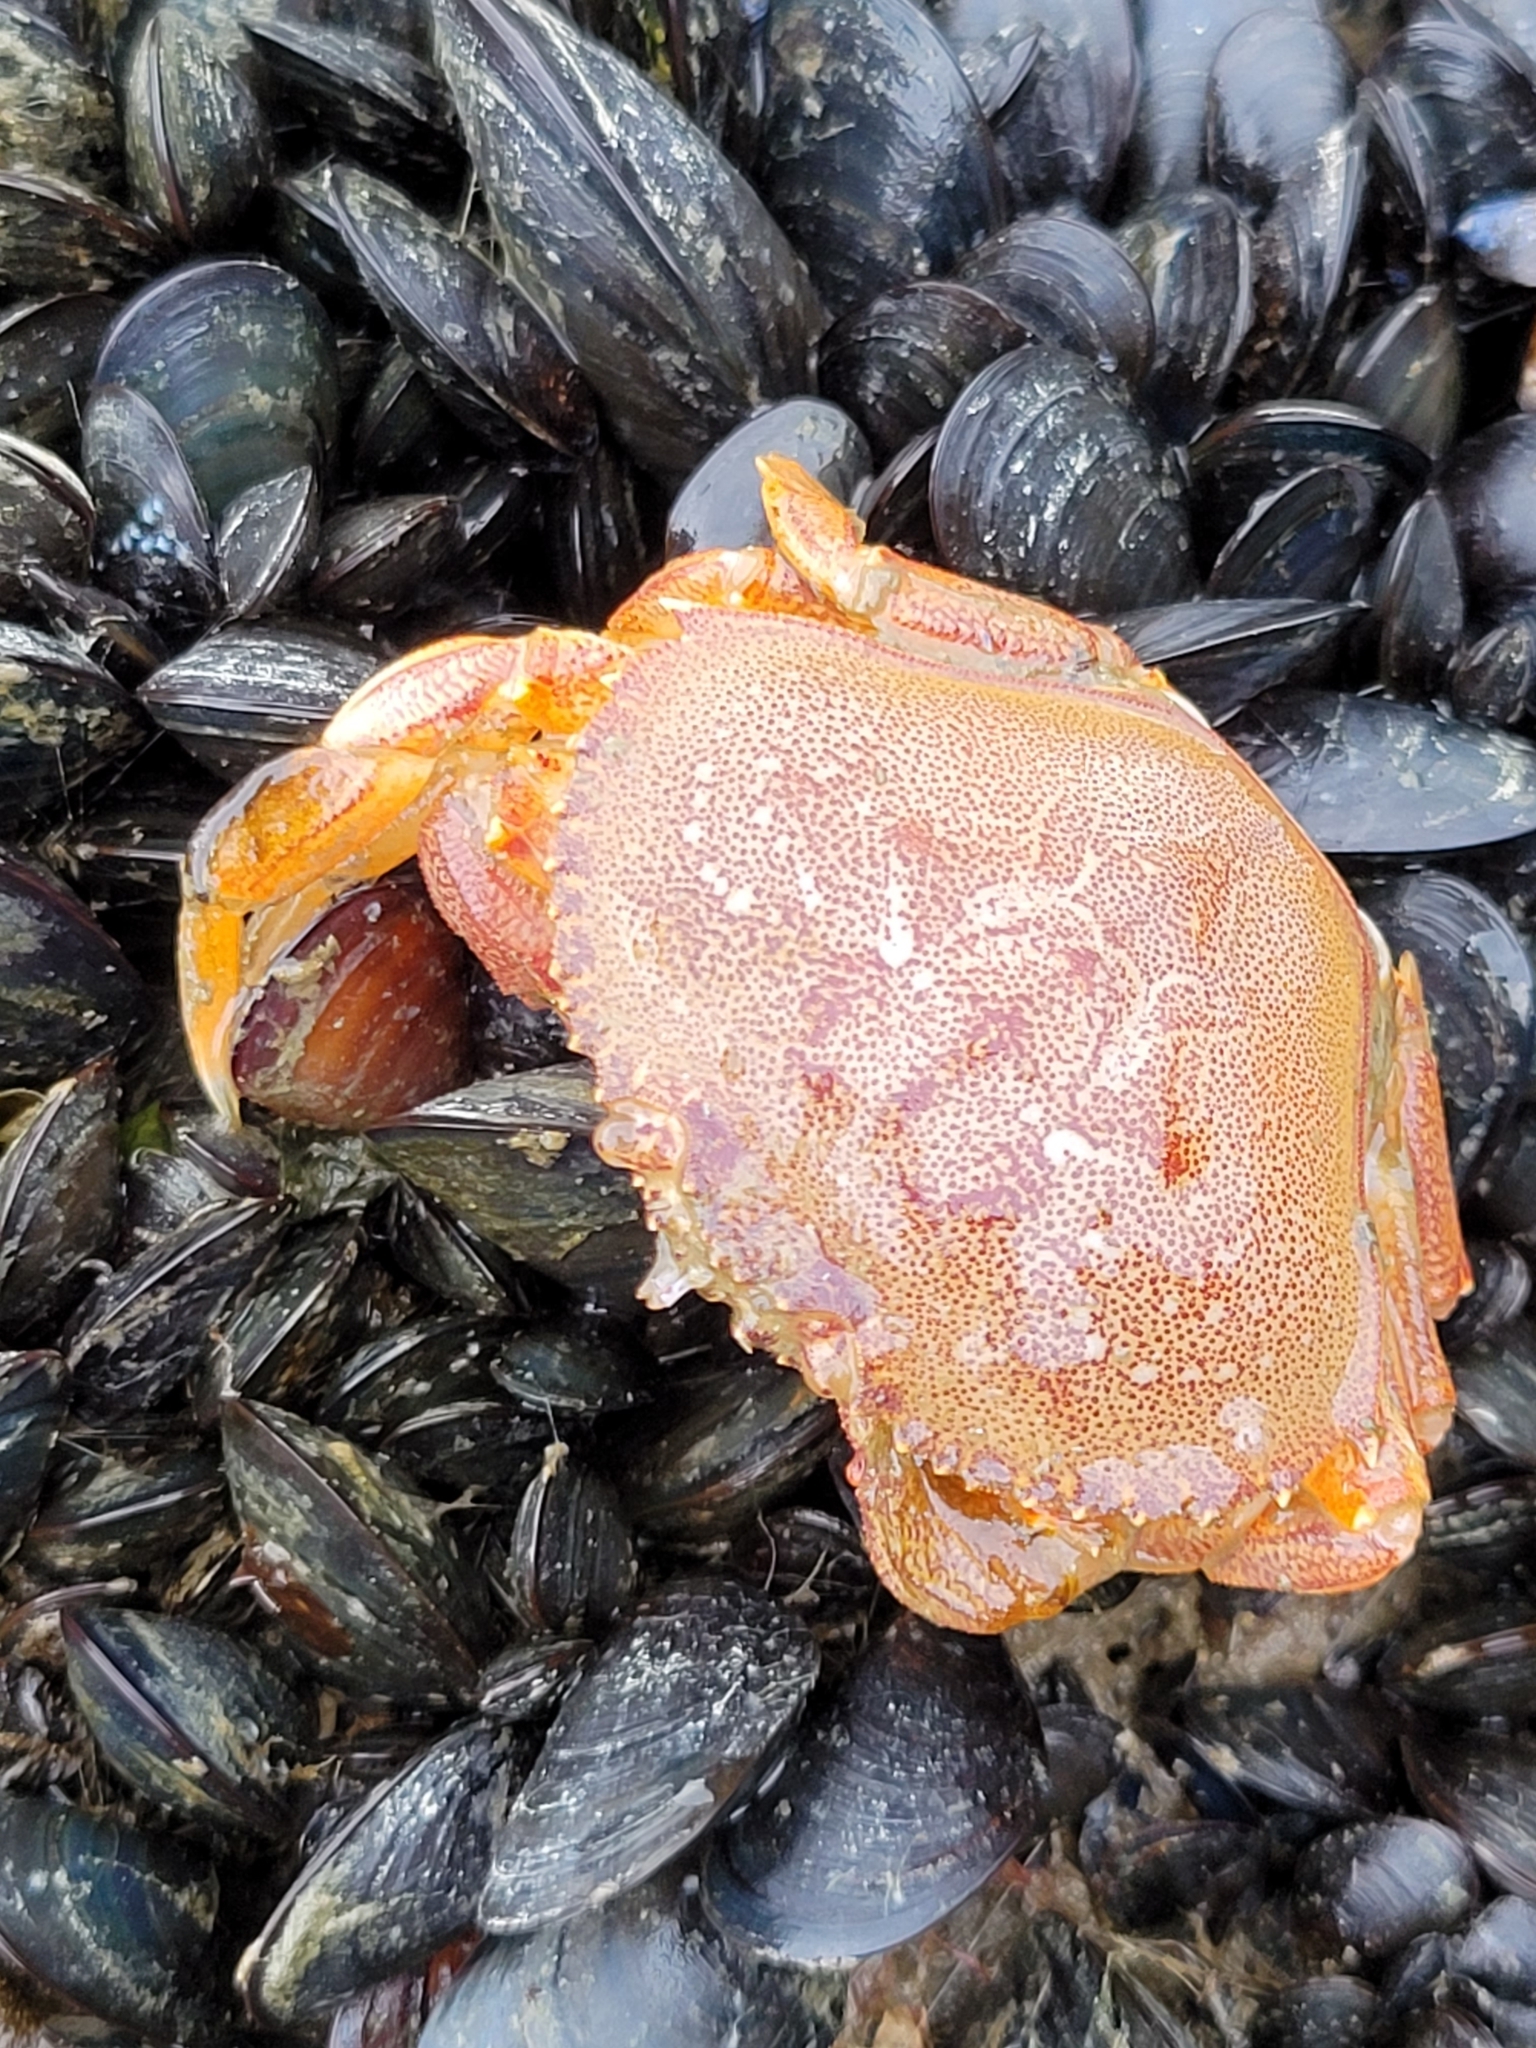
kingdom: Animalia
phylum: Arthropoda
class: Malacostraca
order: Decapoda
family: Cancridae
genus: Metacarcinus
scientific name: Metacarcinus magister
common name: Californian crab
